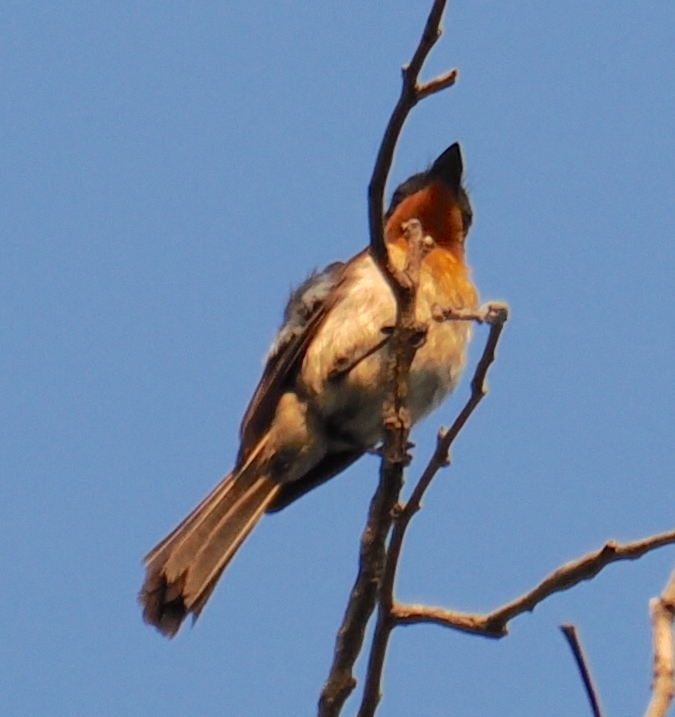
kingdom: Animalia
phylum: Chordata
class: Aves
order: Passeriformes
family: Monarchidae
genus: Myiagra
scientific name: Myiagra ruficollis
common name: Broad-billed flycatcher
